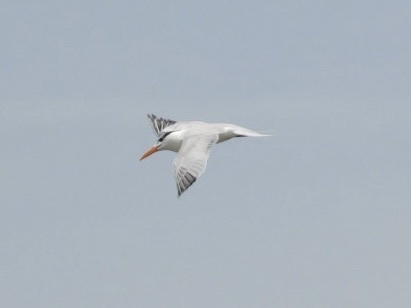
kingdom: Animalia
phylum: Chordata
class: Aves
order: Charadriiformes
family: Laridae
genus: Thalasseus
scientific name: Thalasseus maximus
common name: Royal tern
